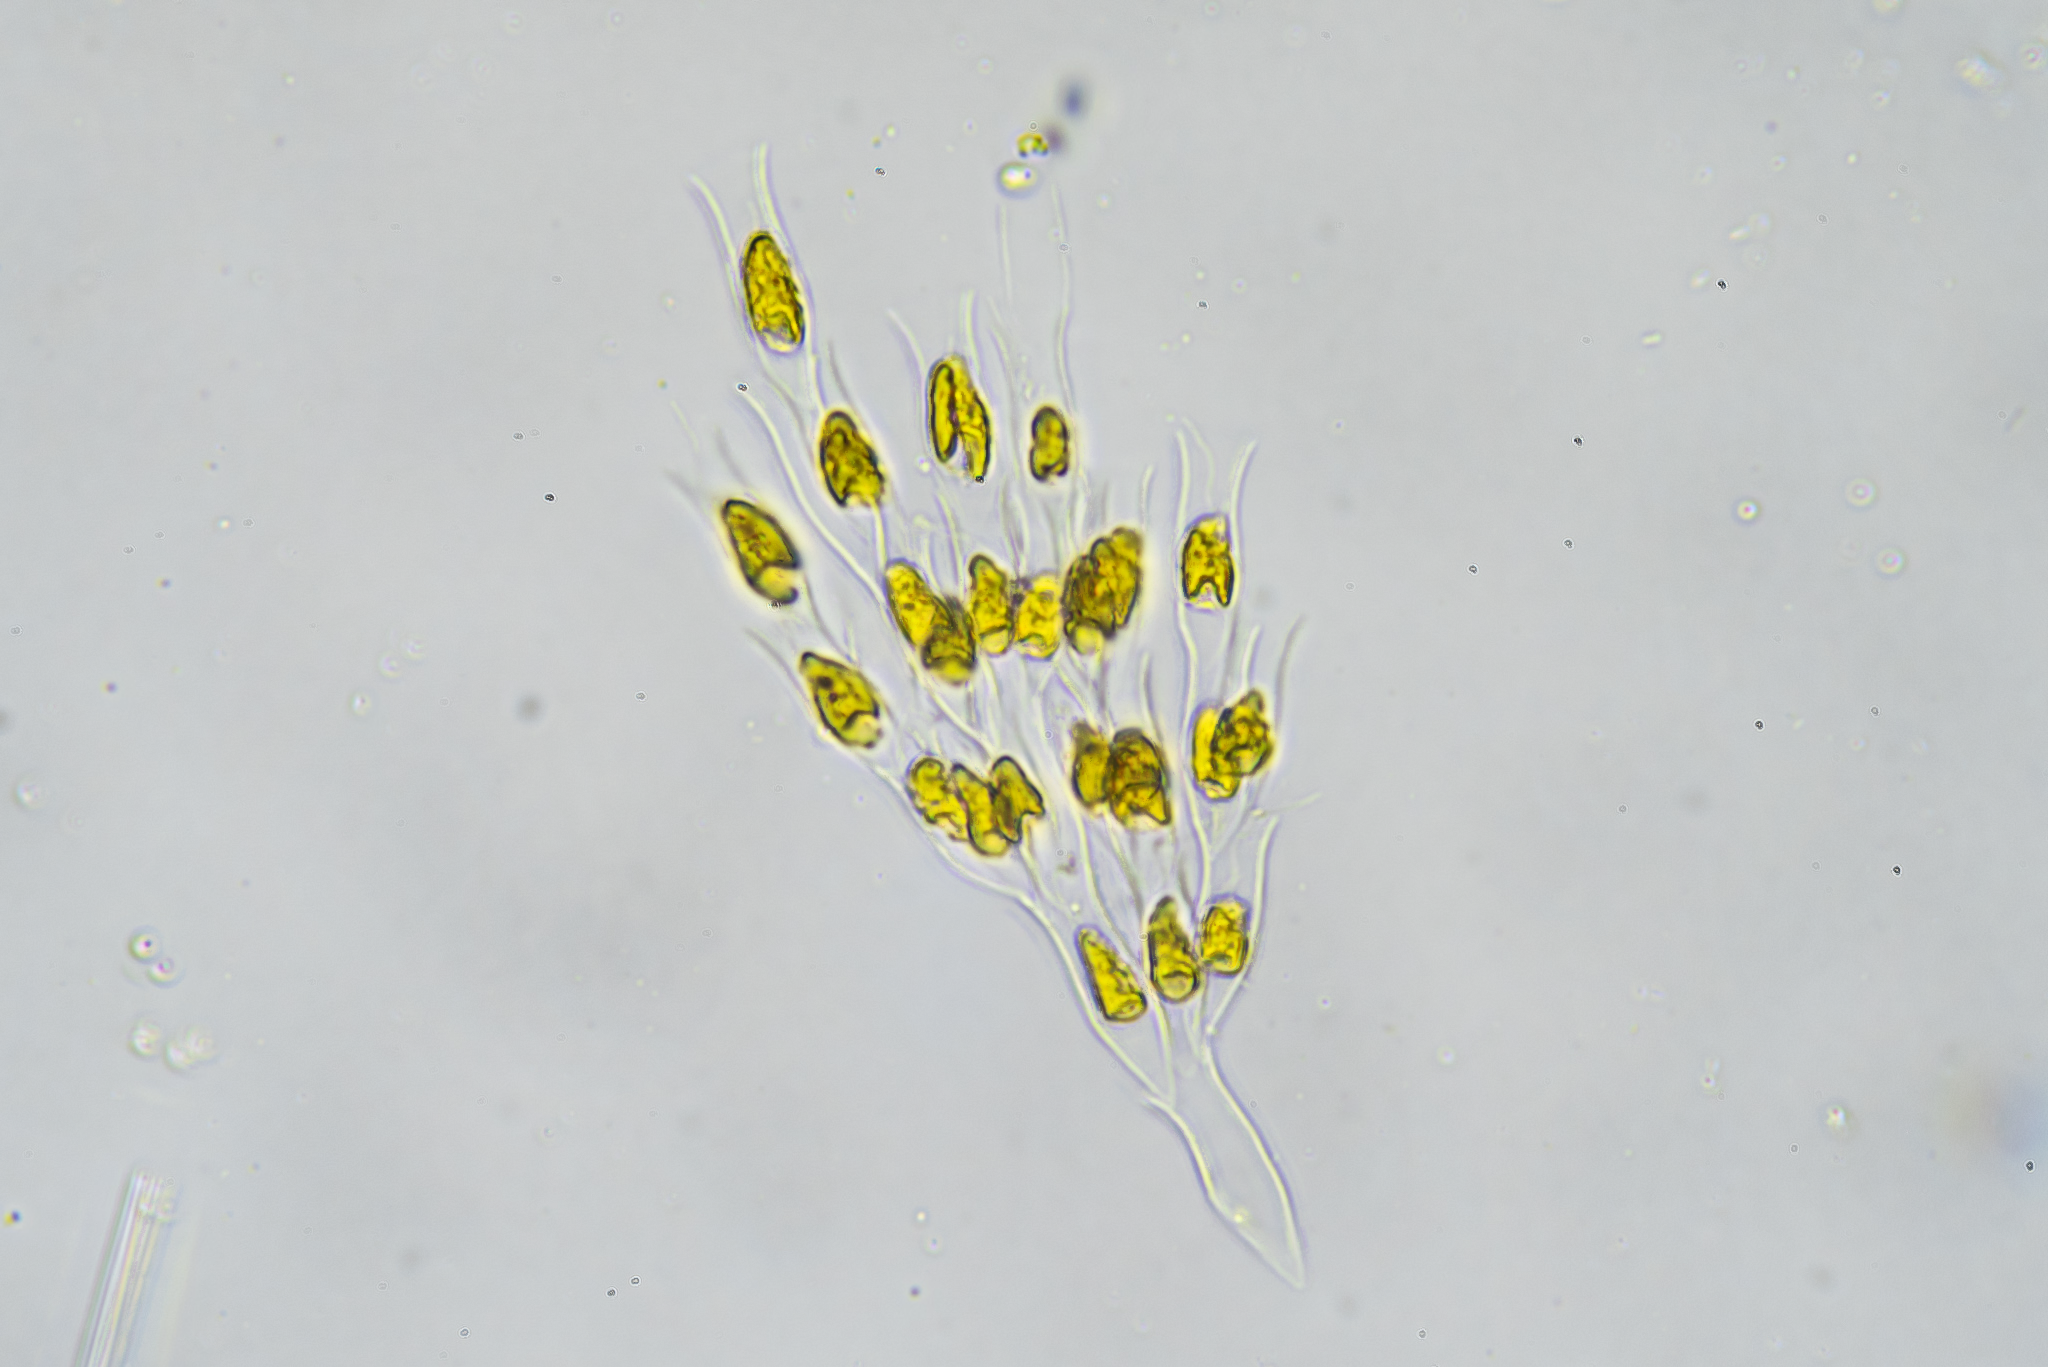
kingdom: Chromista
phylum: Ochrophyta
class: Chrysophyceae
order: Chromulinales
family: Dinobryaceae
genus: Dinobryon
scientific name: Dinobryon sertularia
